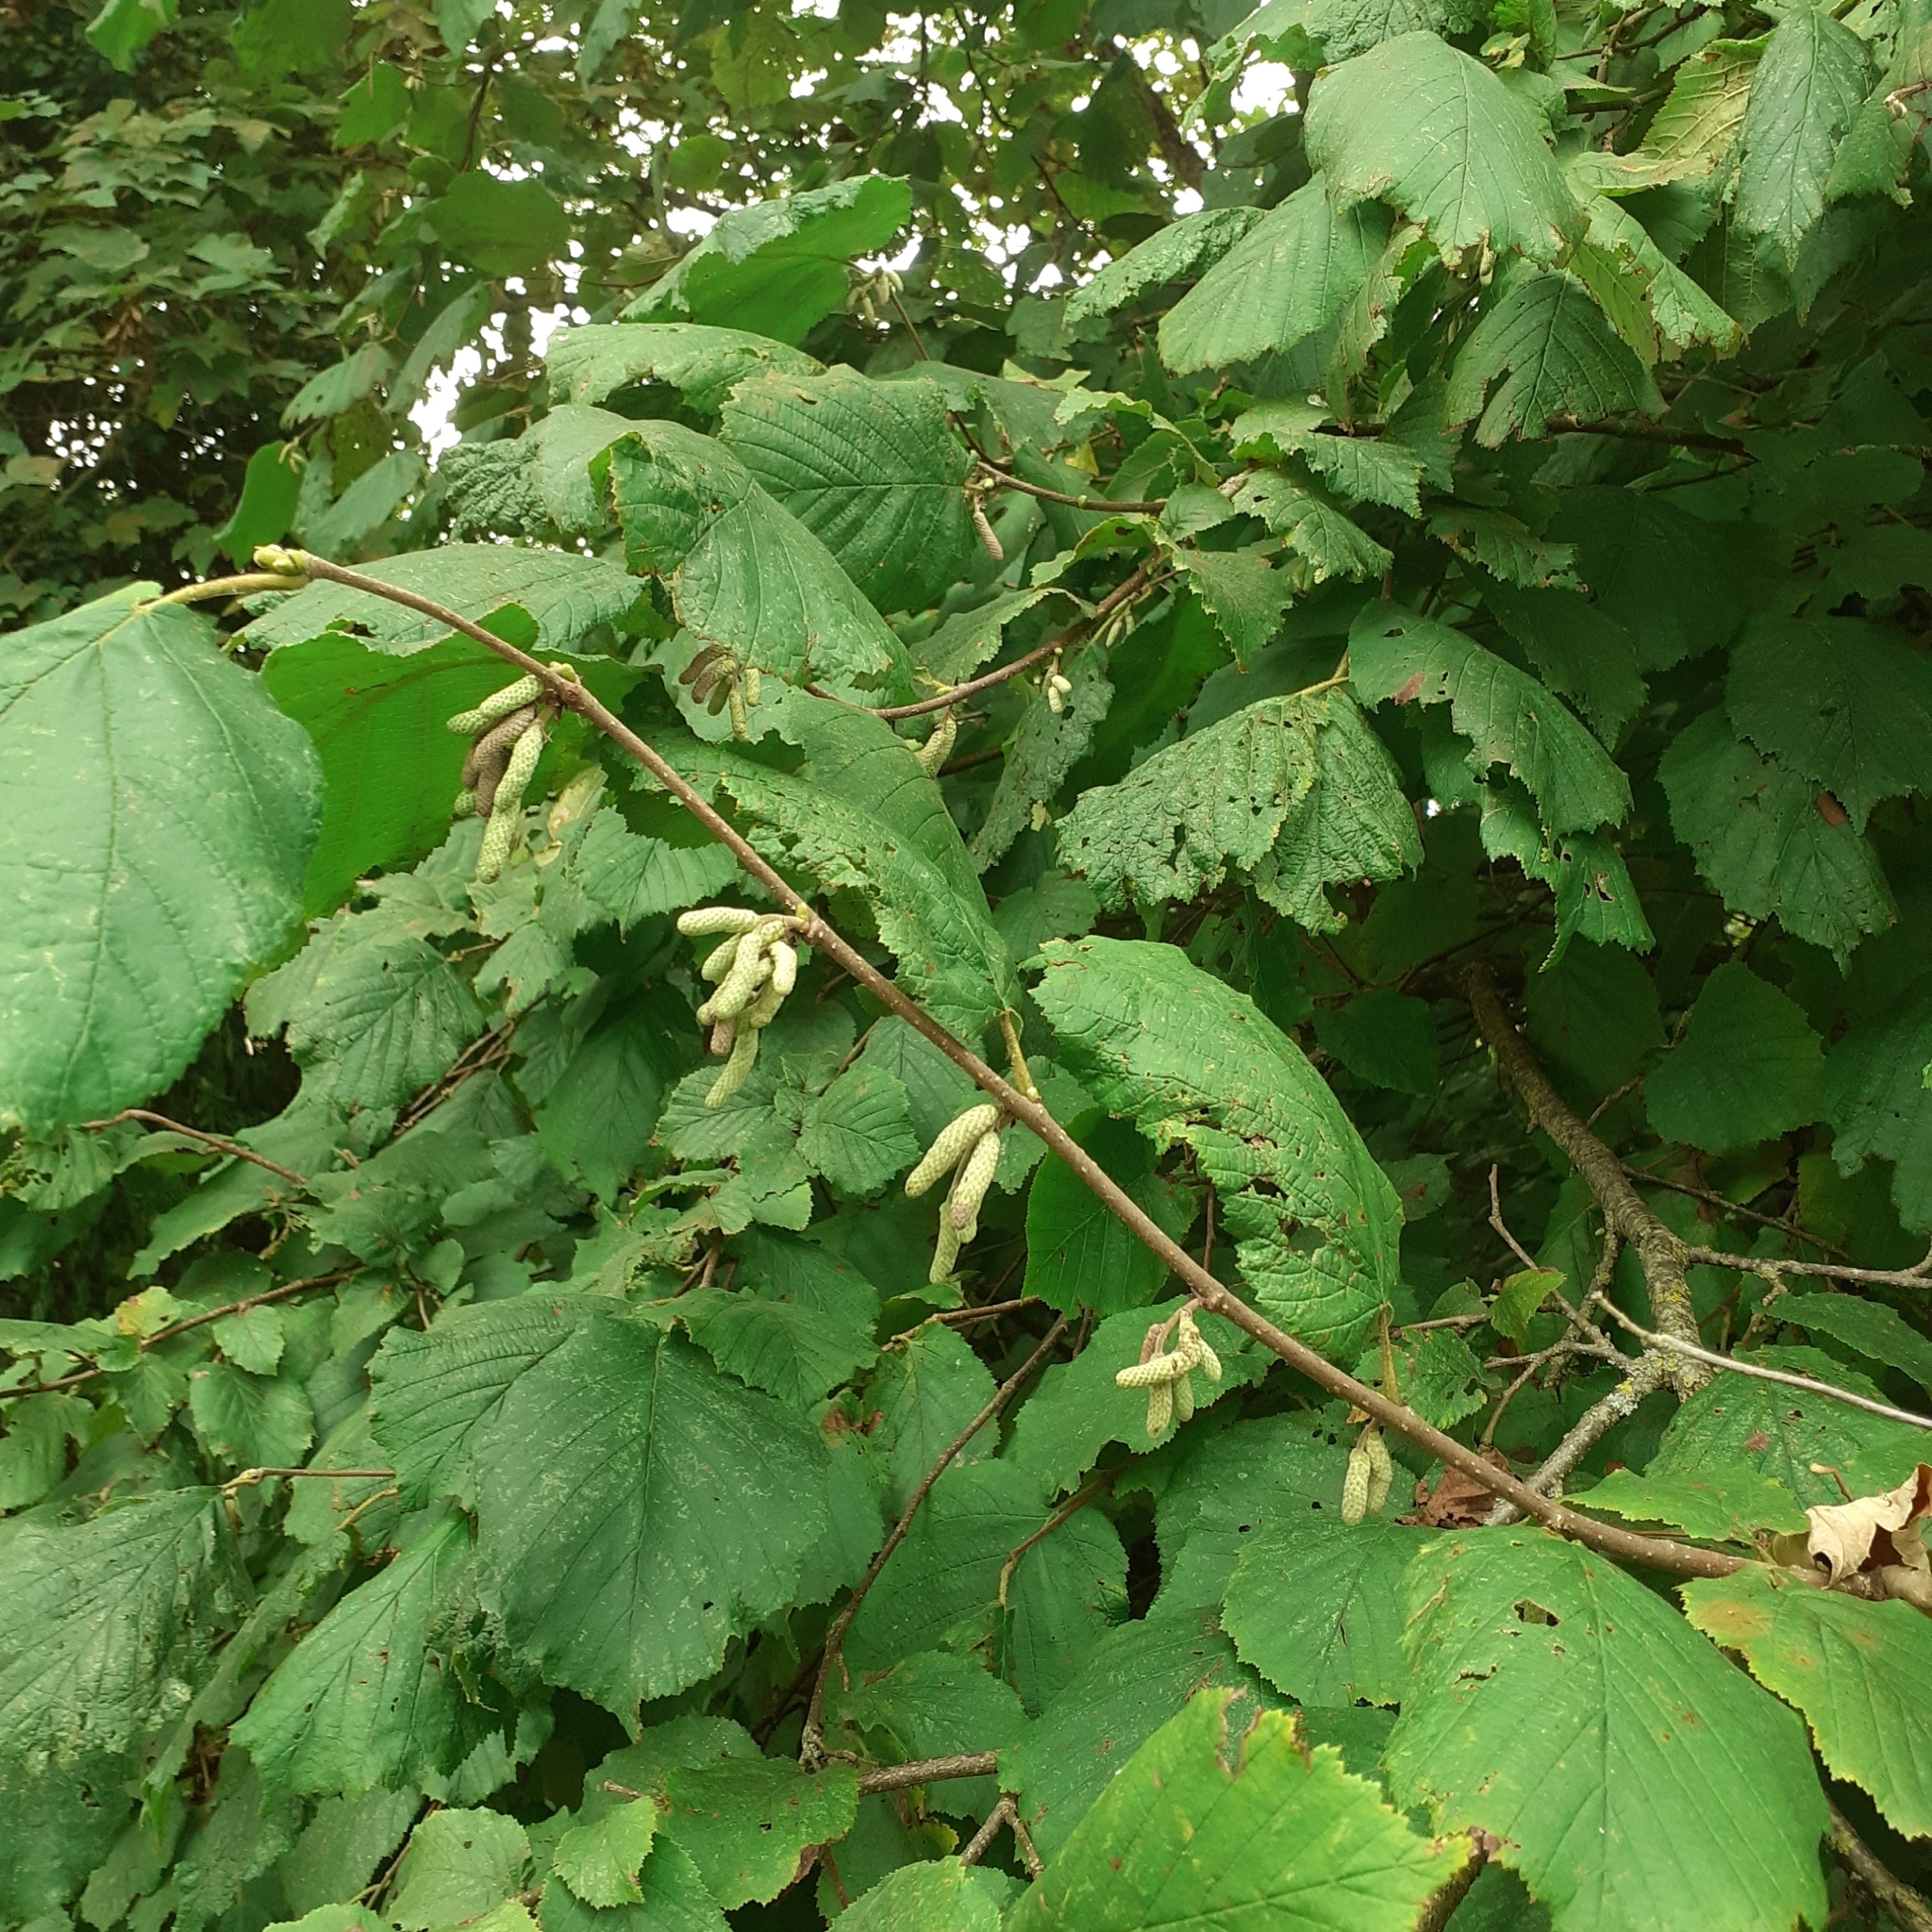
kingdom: Plantae
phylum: Tracheophyta
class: Magnoliopsida
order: Fagales
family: Betulaceae
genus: Corylus
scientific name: Corylus avellana
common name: European hazel
